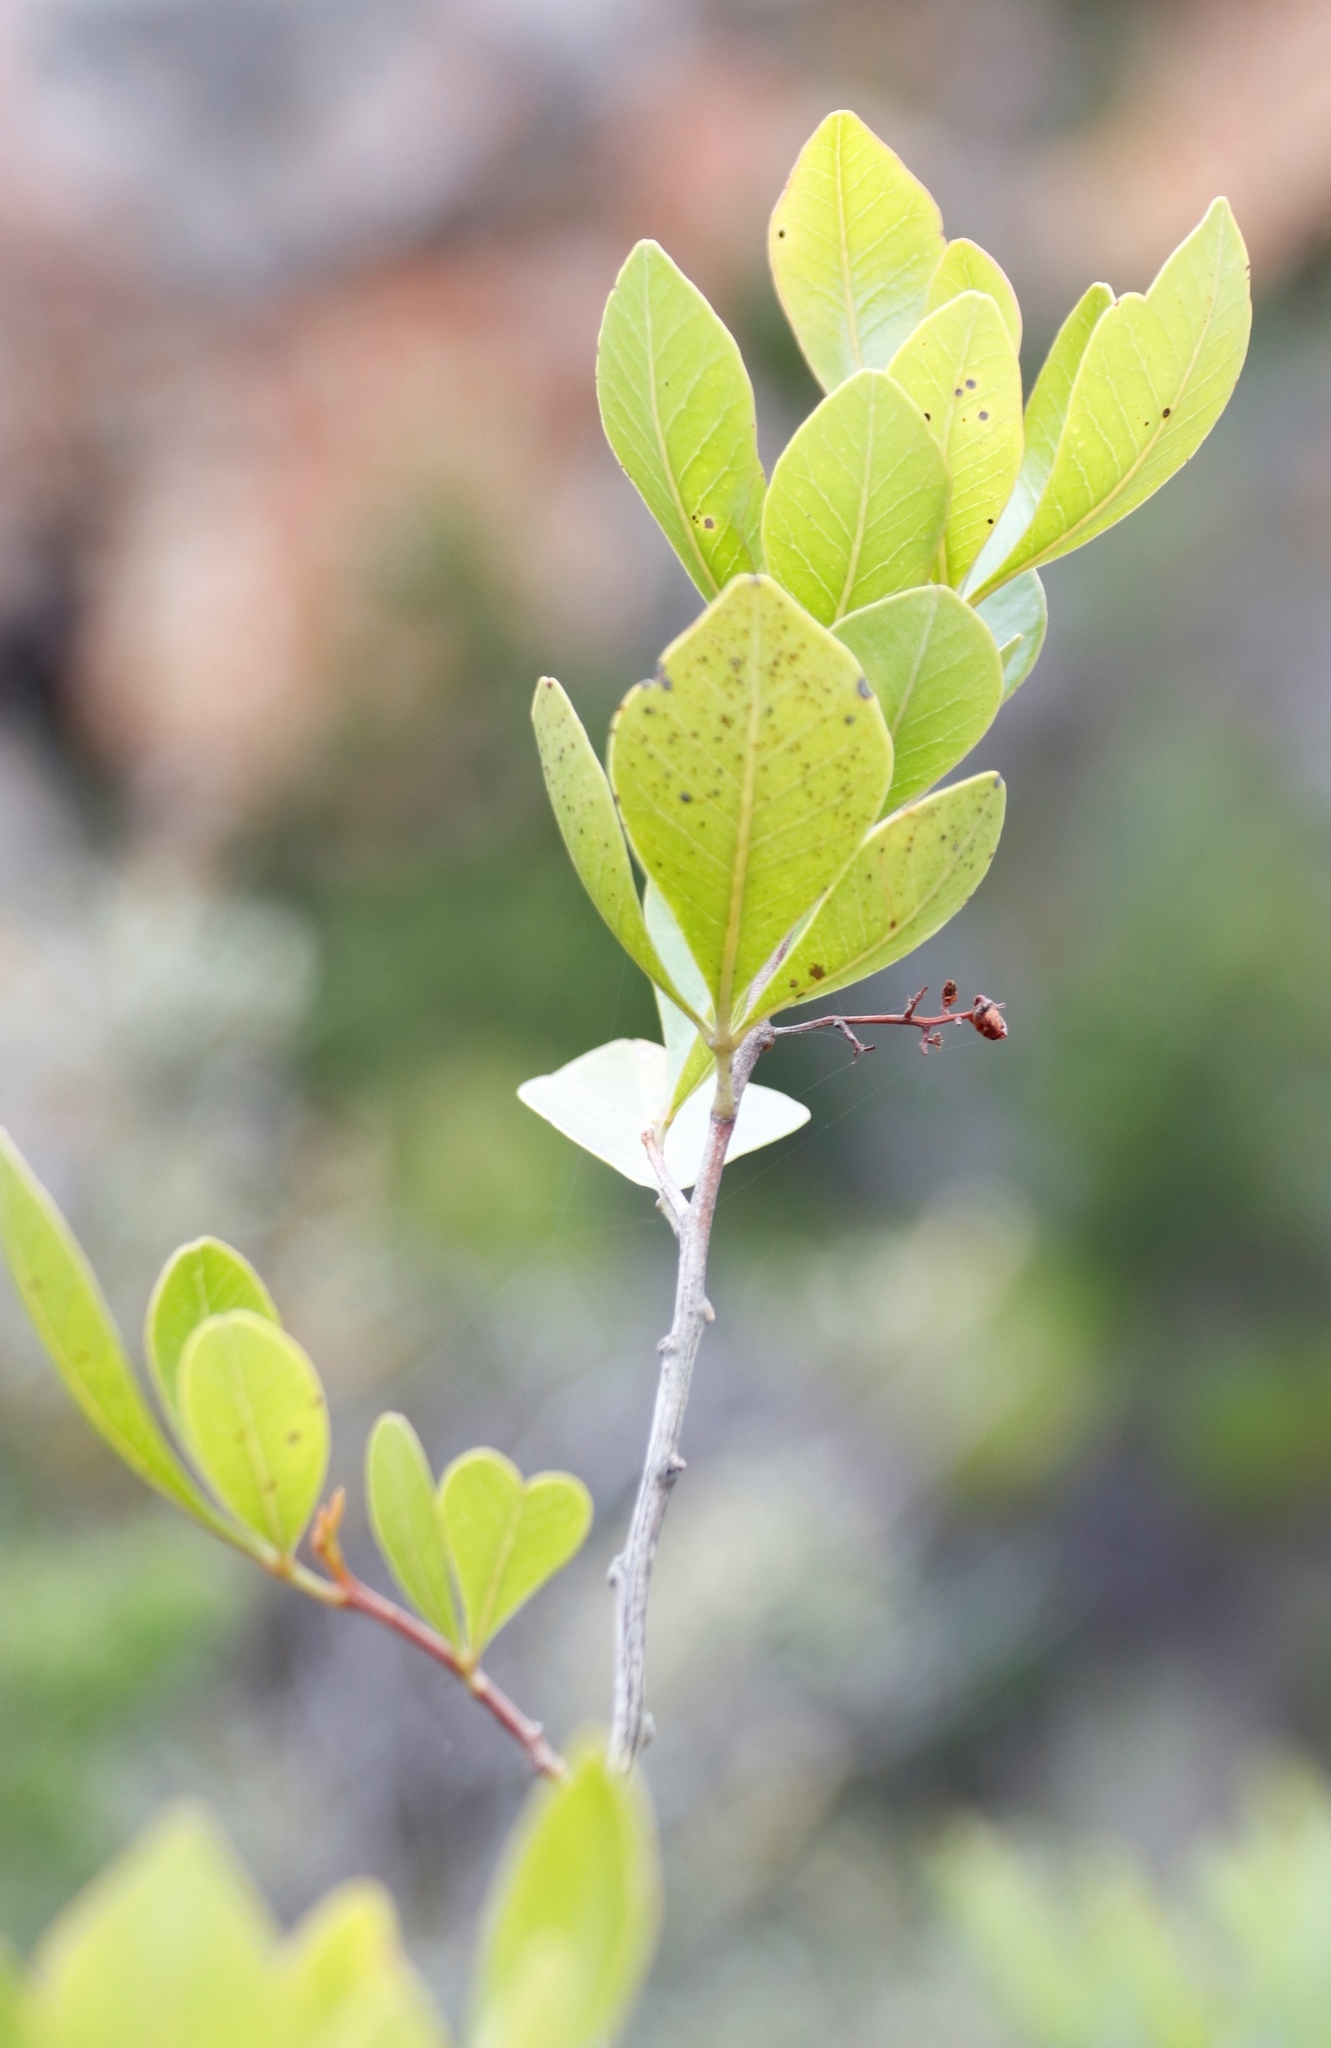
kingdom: Plantae
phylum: Tracheophyta
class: Magnoliopsida
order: Sapindales
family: Anacardiaceae
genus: Searsia
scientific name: Searsia lucida
